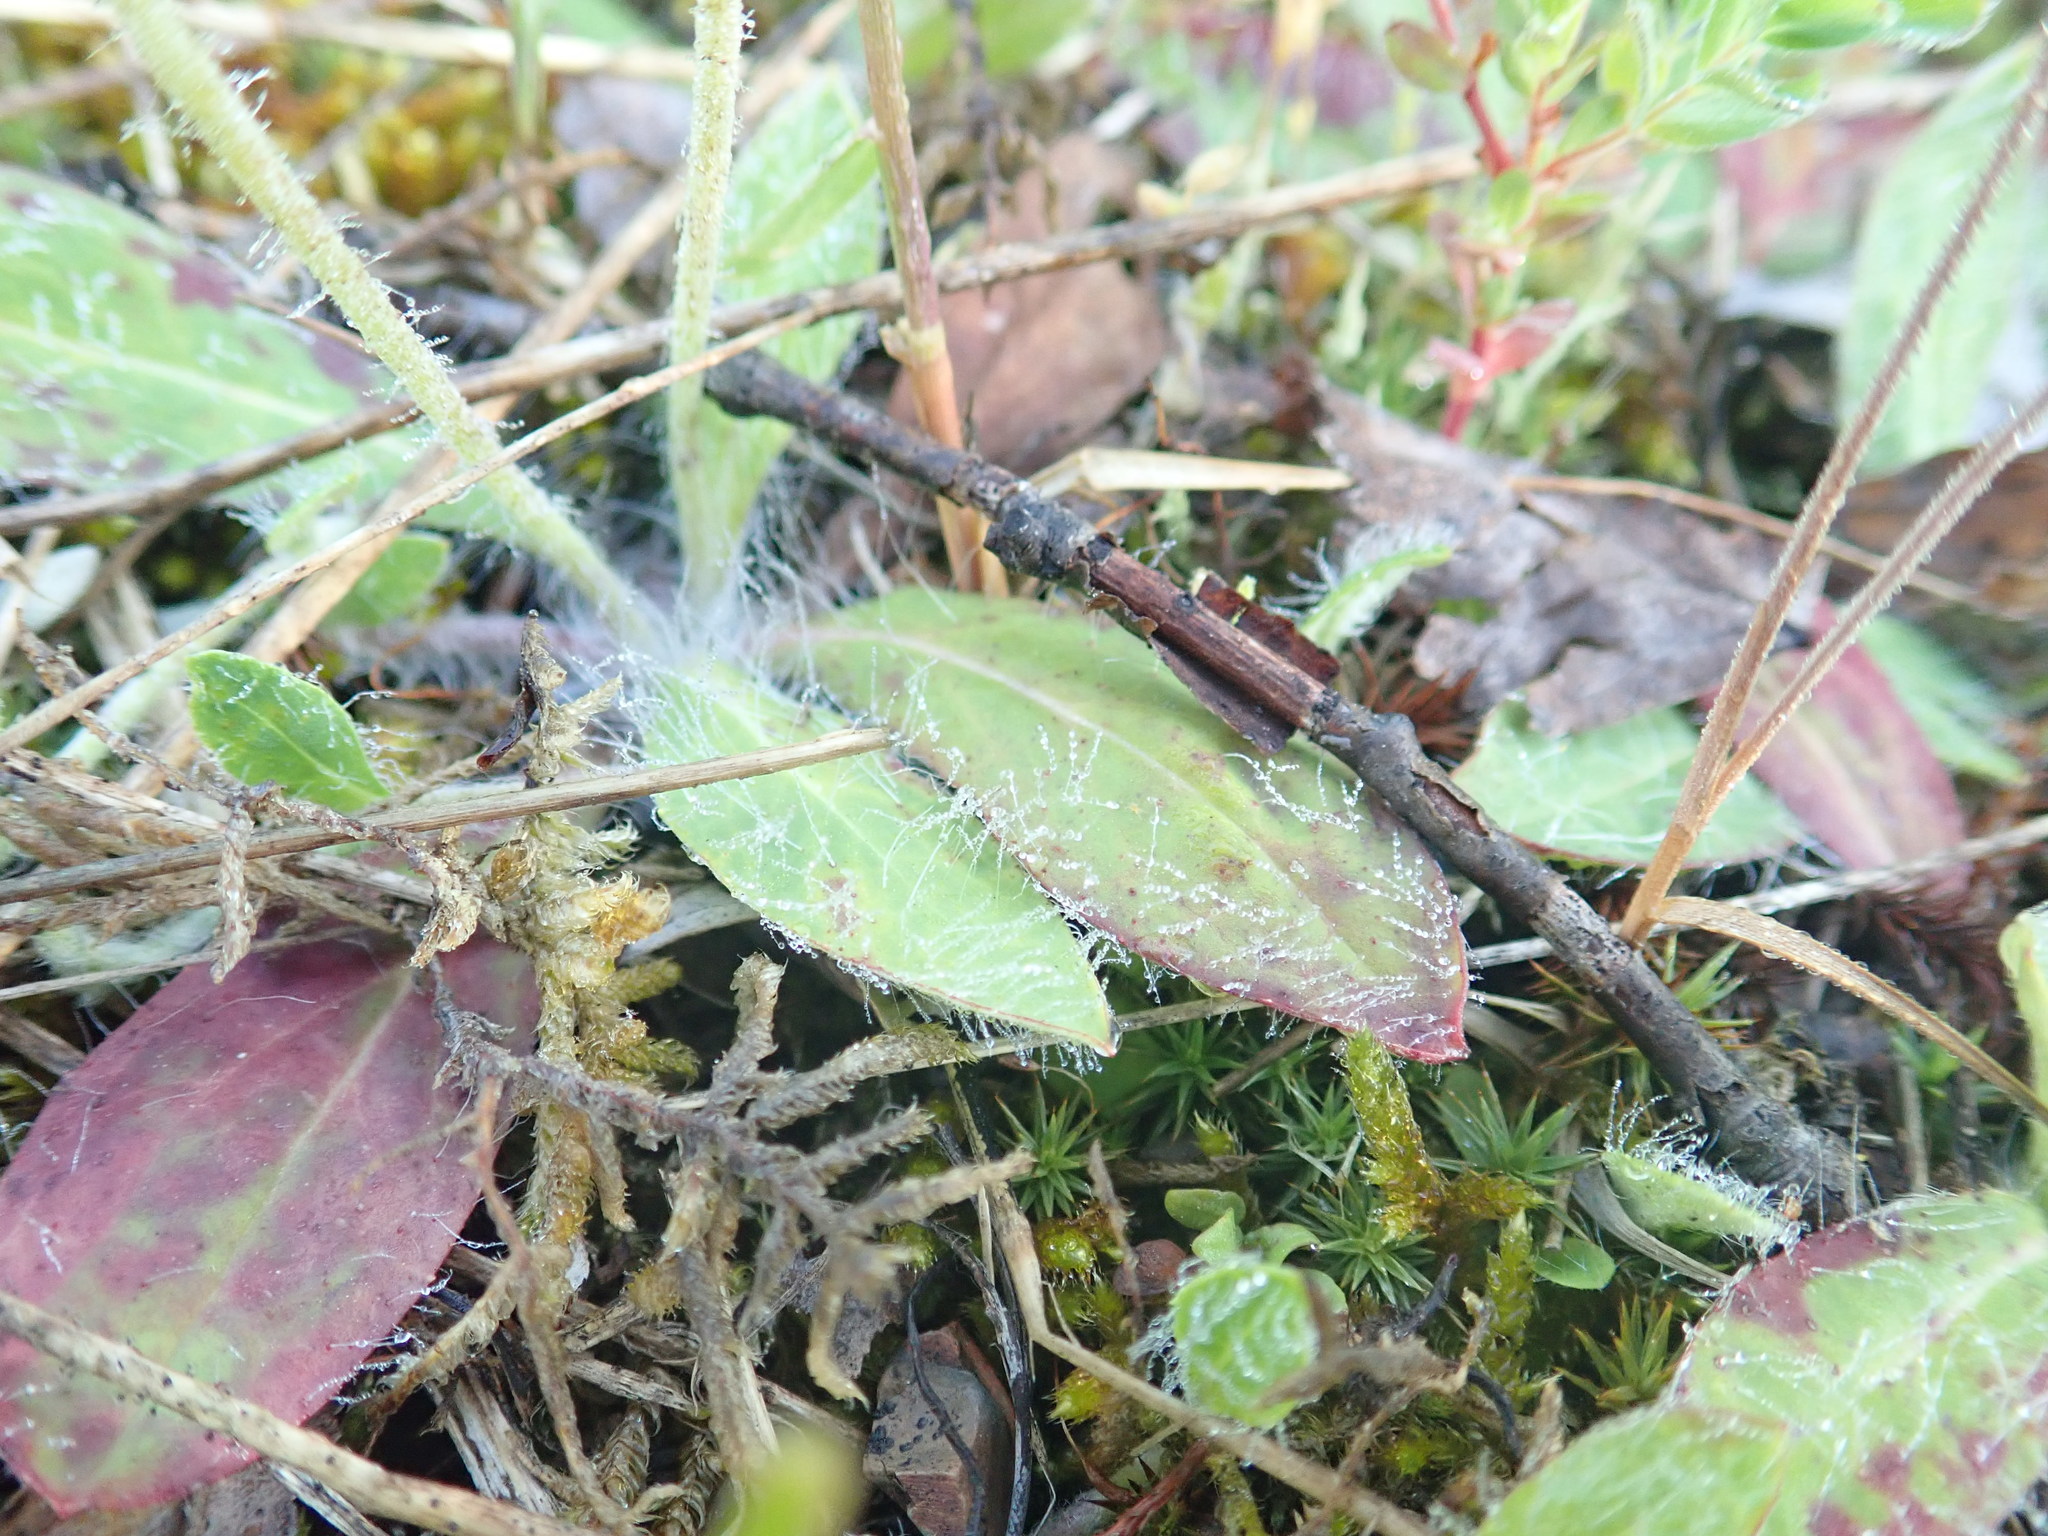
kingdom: Plantae
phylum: Tracheophyta
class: Magnoliopsida
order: Asterales
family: Asteraceae
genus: Pilosella
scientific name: Pilosella officinarum
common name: Mouse-ear hawkweed
